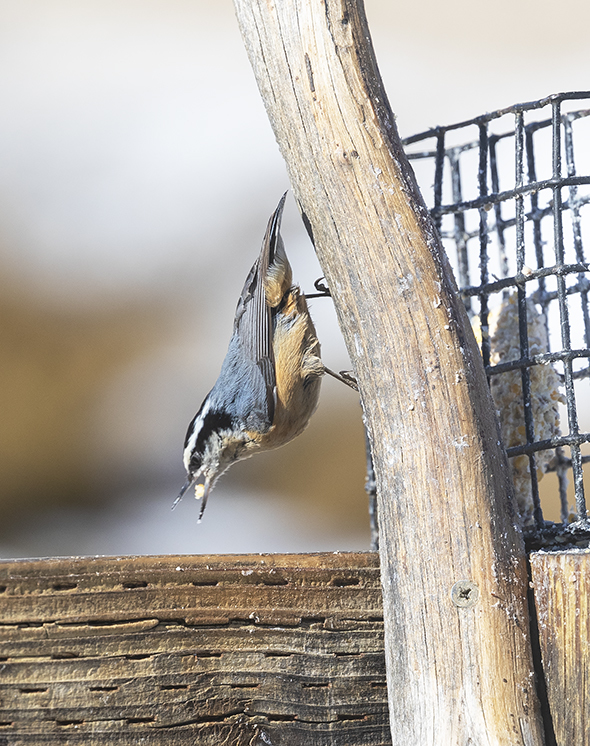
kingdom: Animalia
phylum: Chordata
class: Aves
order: Passeriformes
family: Sittidae
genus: Sitta
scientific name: Sitta canadensis
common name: Red-breasted nuthatch
